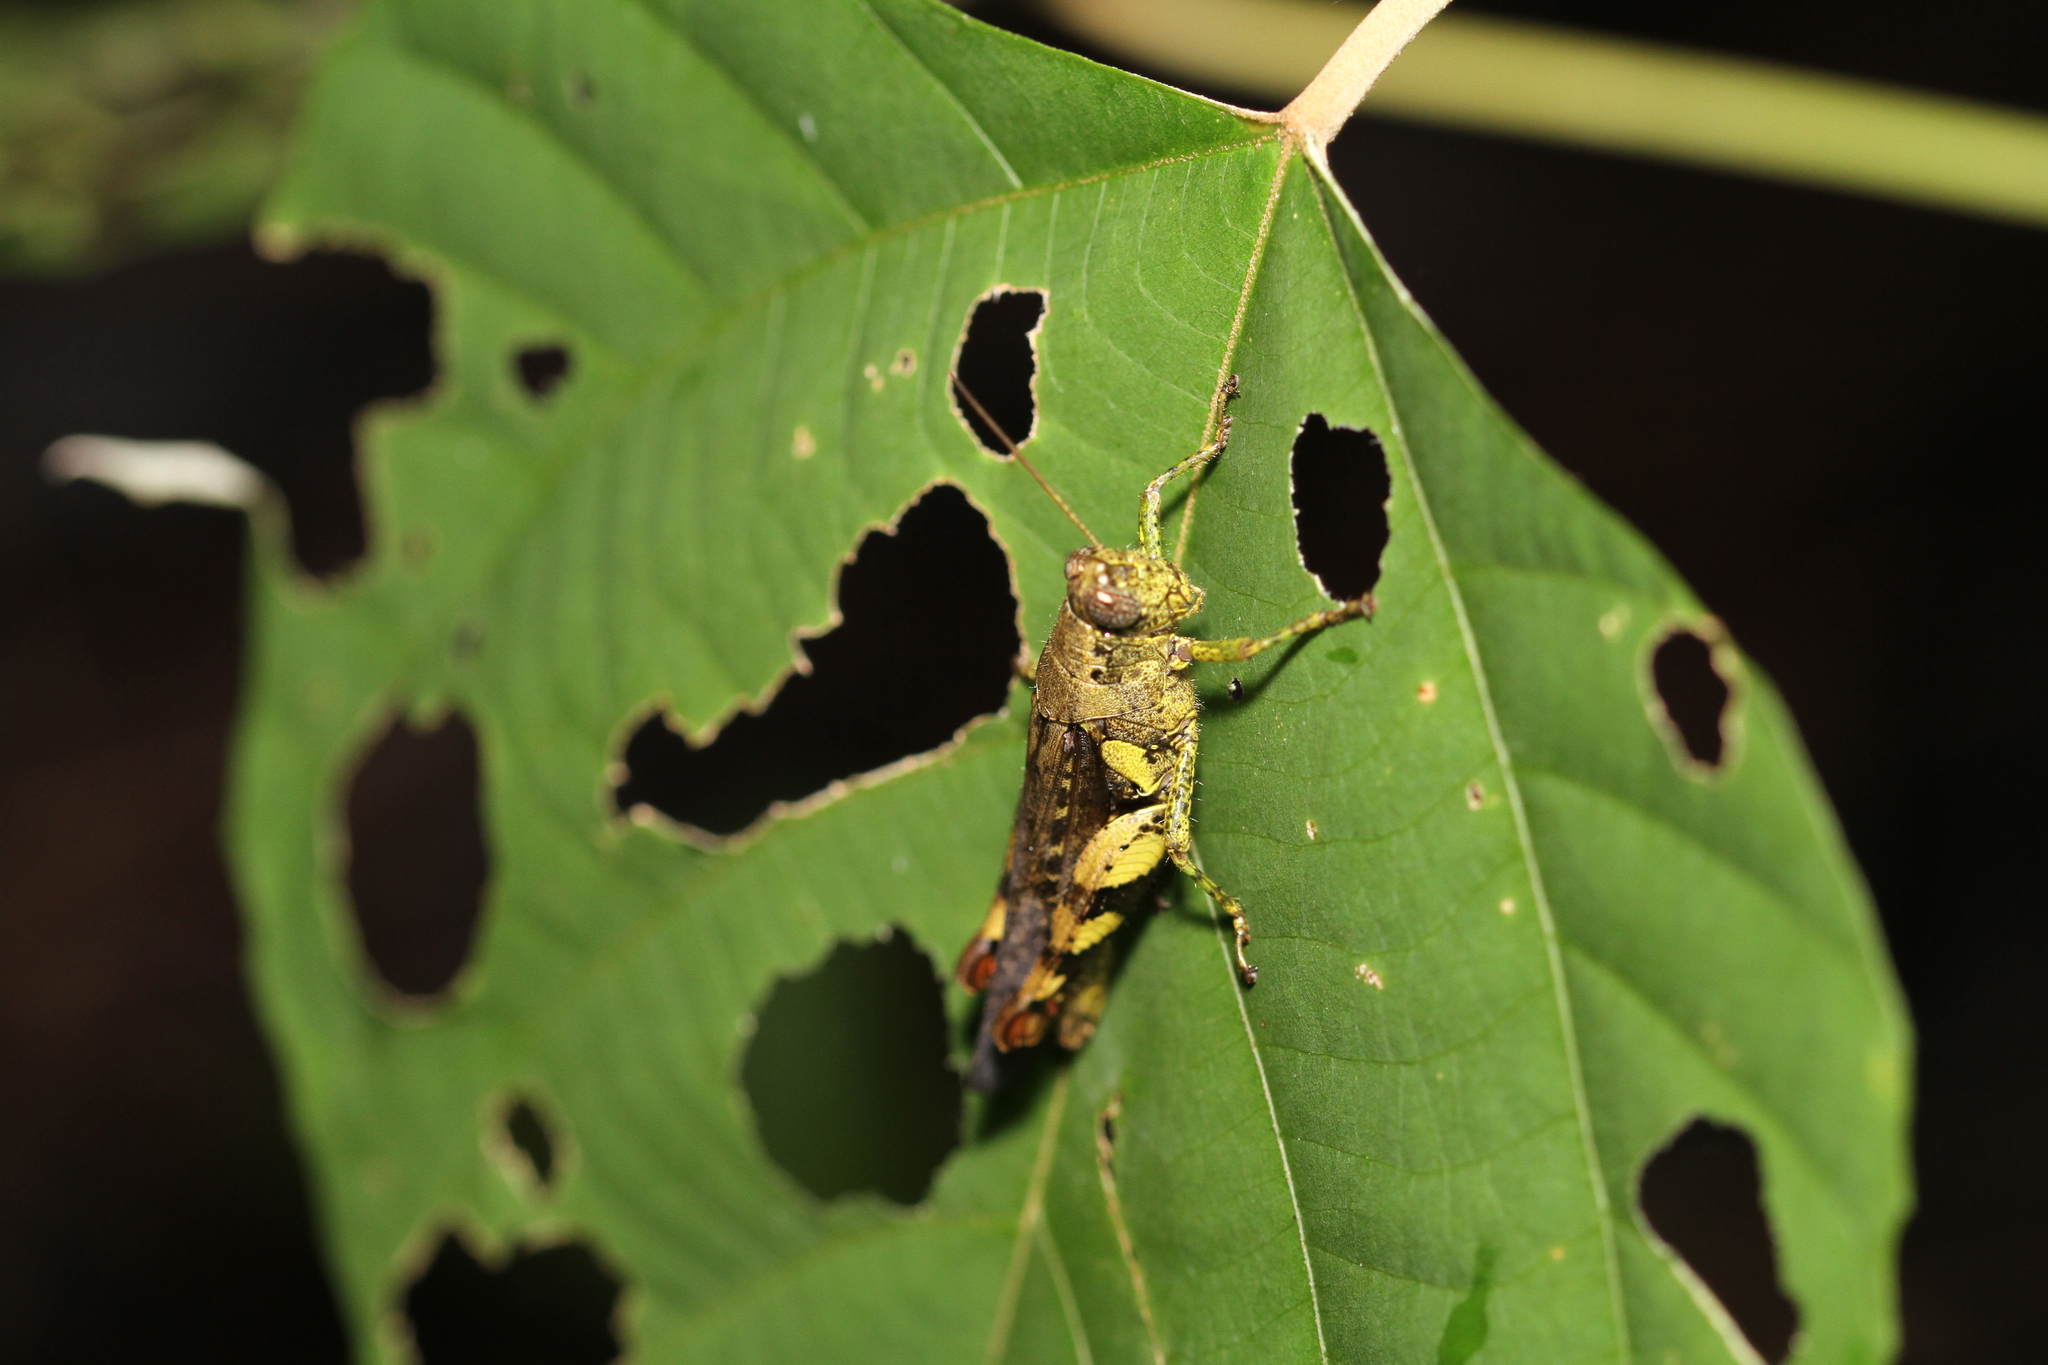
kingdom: Animalia
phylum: Arthropoda
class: Insecta
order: Orthoptera
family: Acrididae
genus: Xenocatantops
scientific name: Xenocatantops humile
